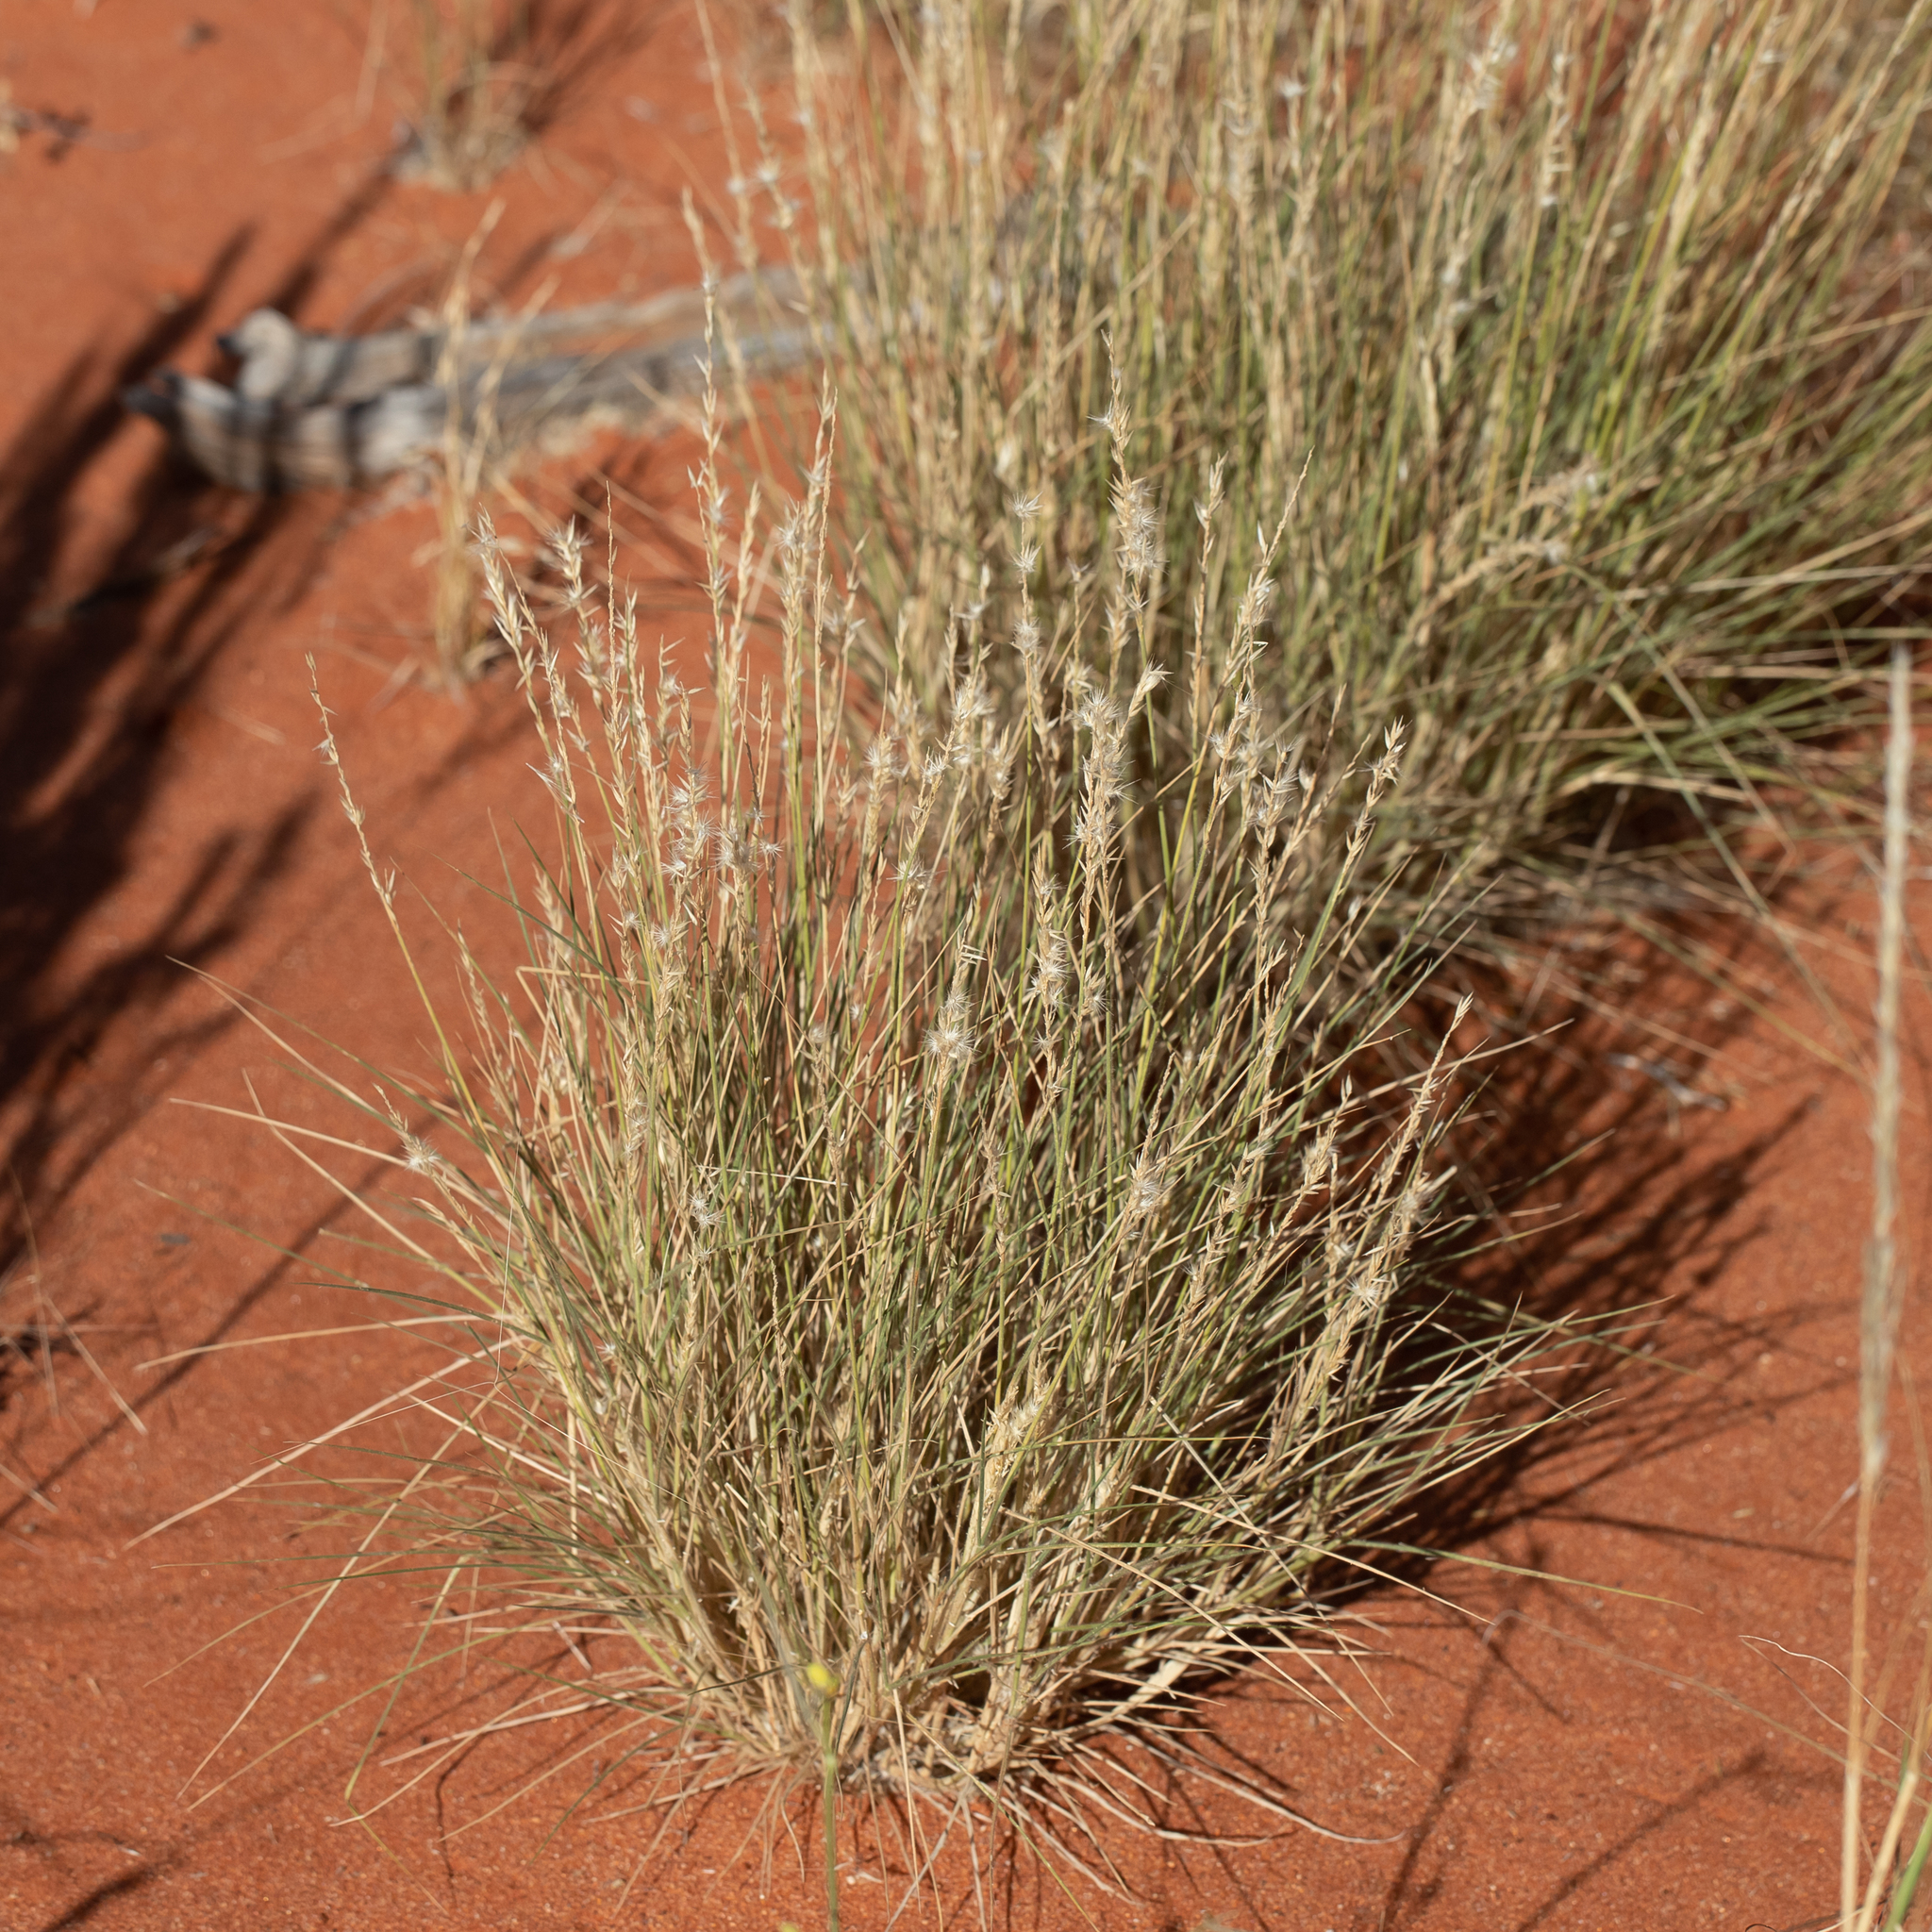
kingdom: Plantae
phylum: Tracheophyta
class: Liliopsida
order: Poales
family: Poaceae
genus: Enneapogon
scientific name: Enneapogon cylindricus
